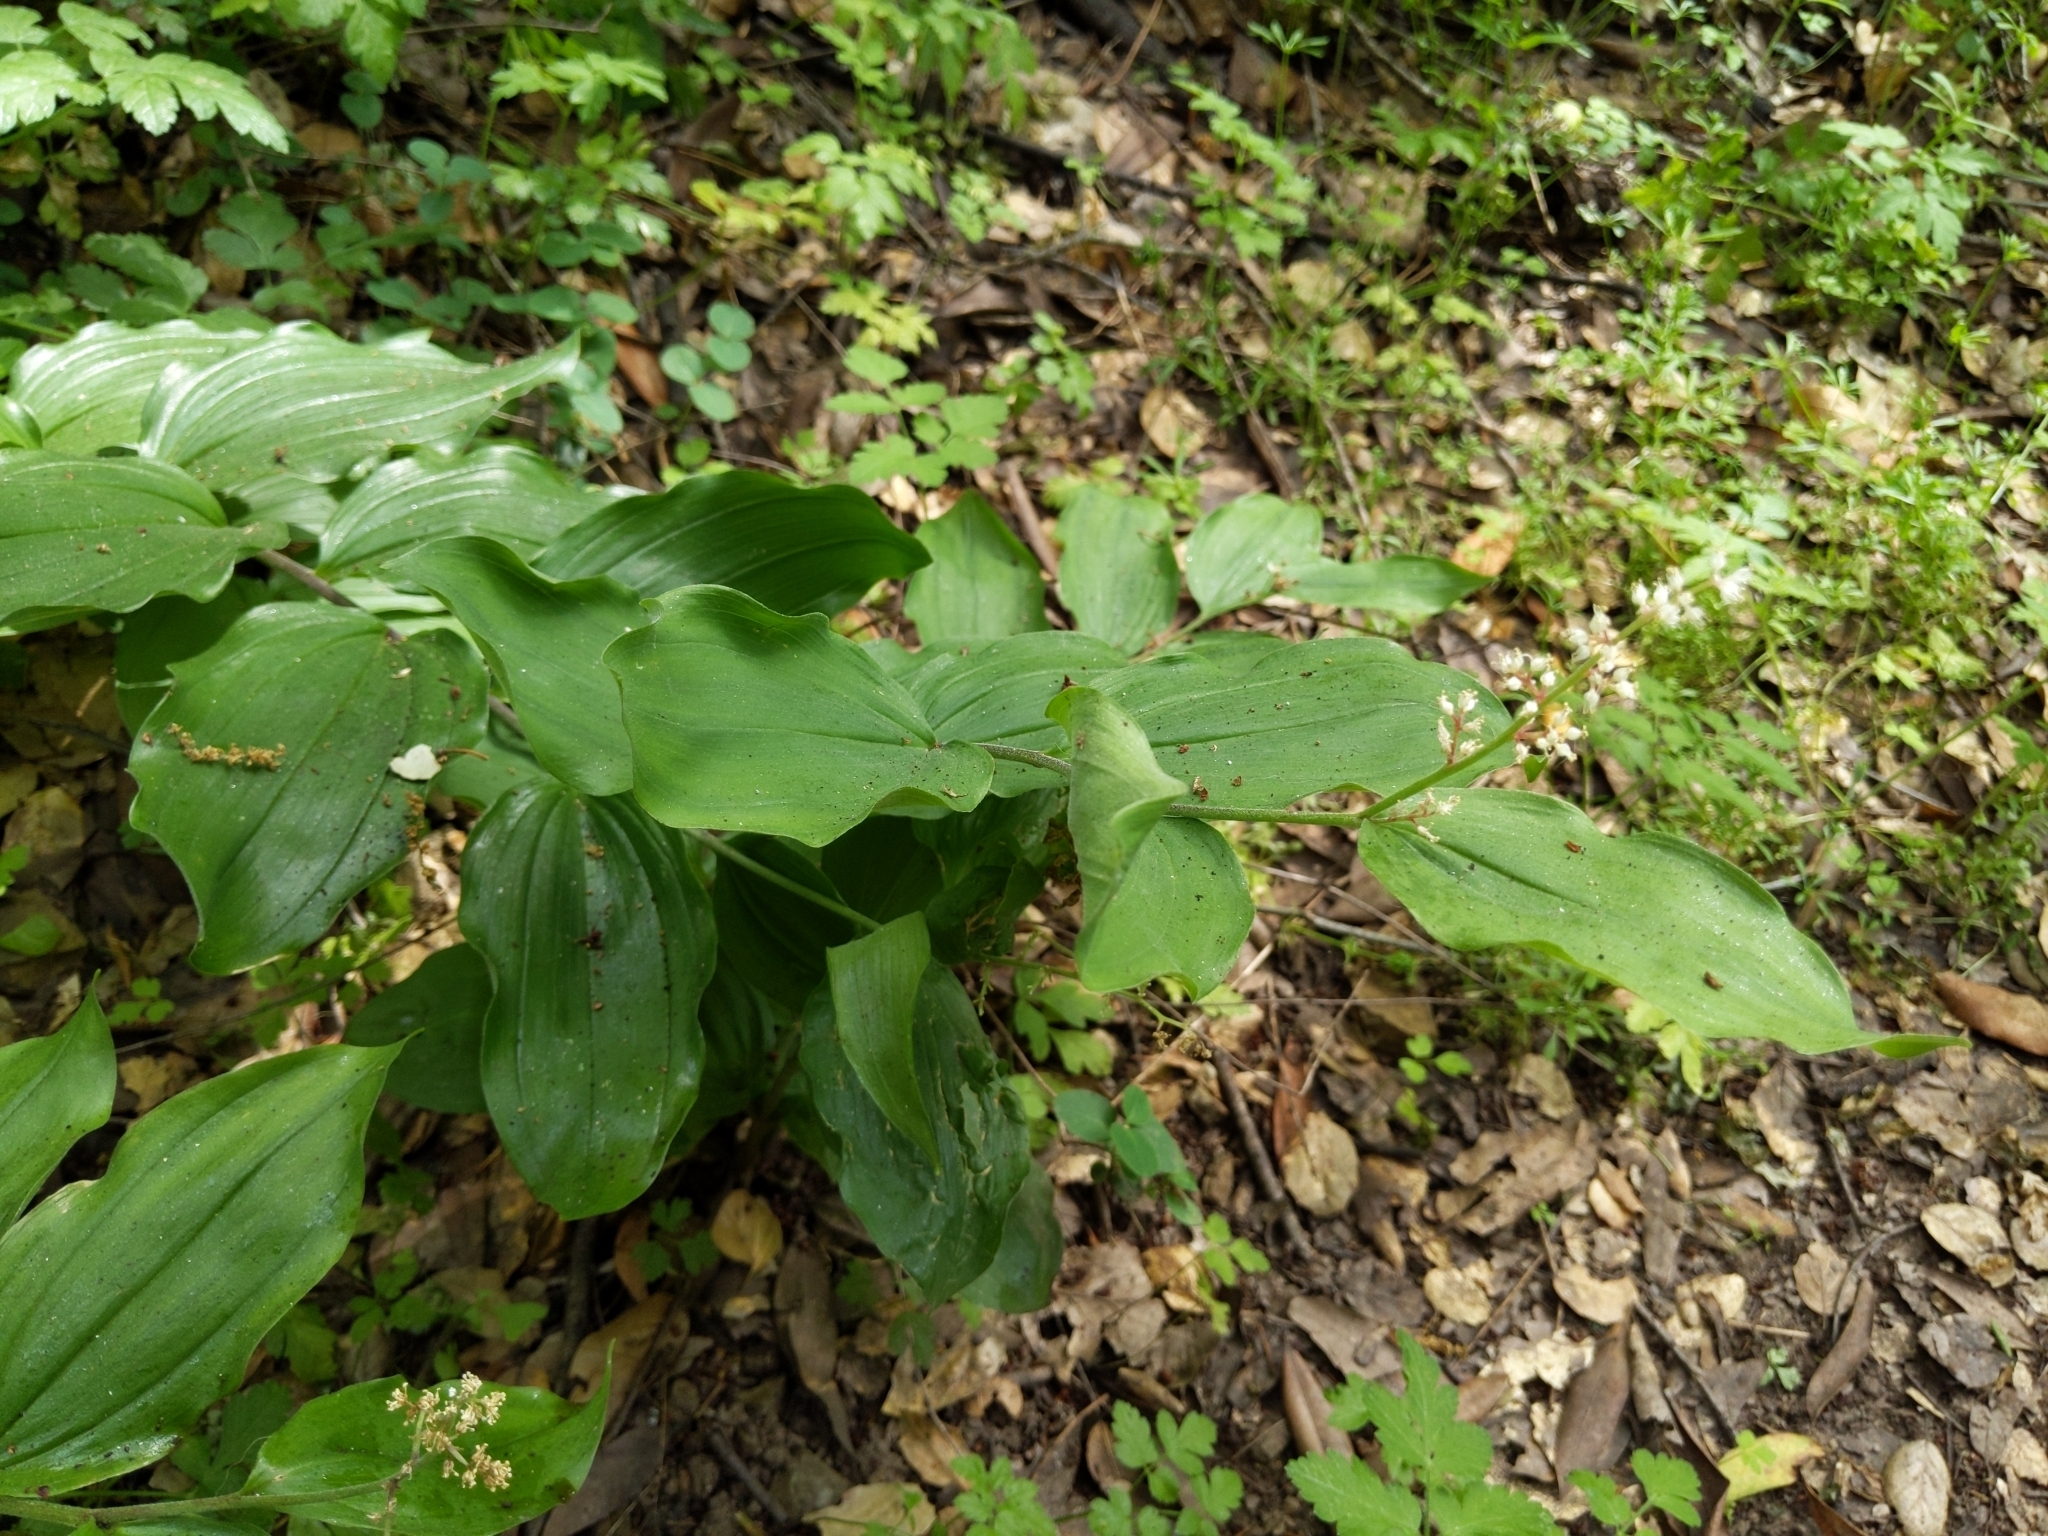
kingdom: Plantae
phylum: Tracheophyta
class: Liliopsida
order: Asparagales
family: Asparagaceae
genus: Maianthemum
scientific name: Maianthemum racemosum
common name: False spikenard
